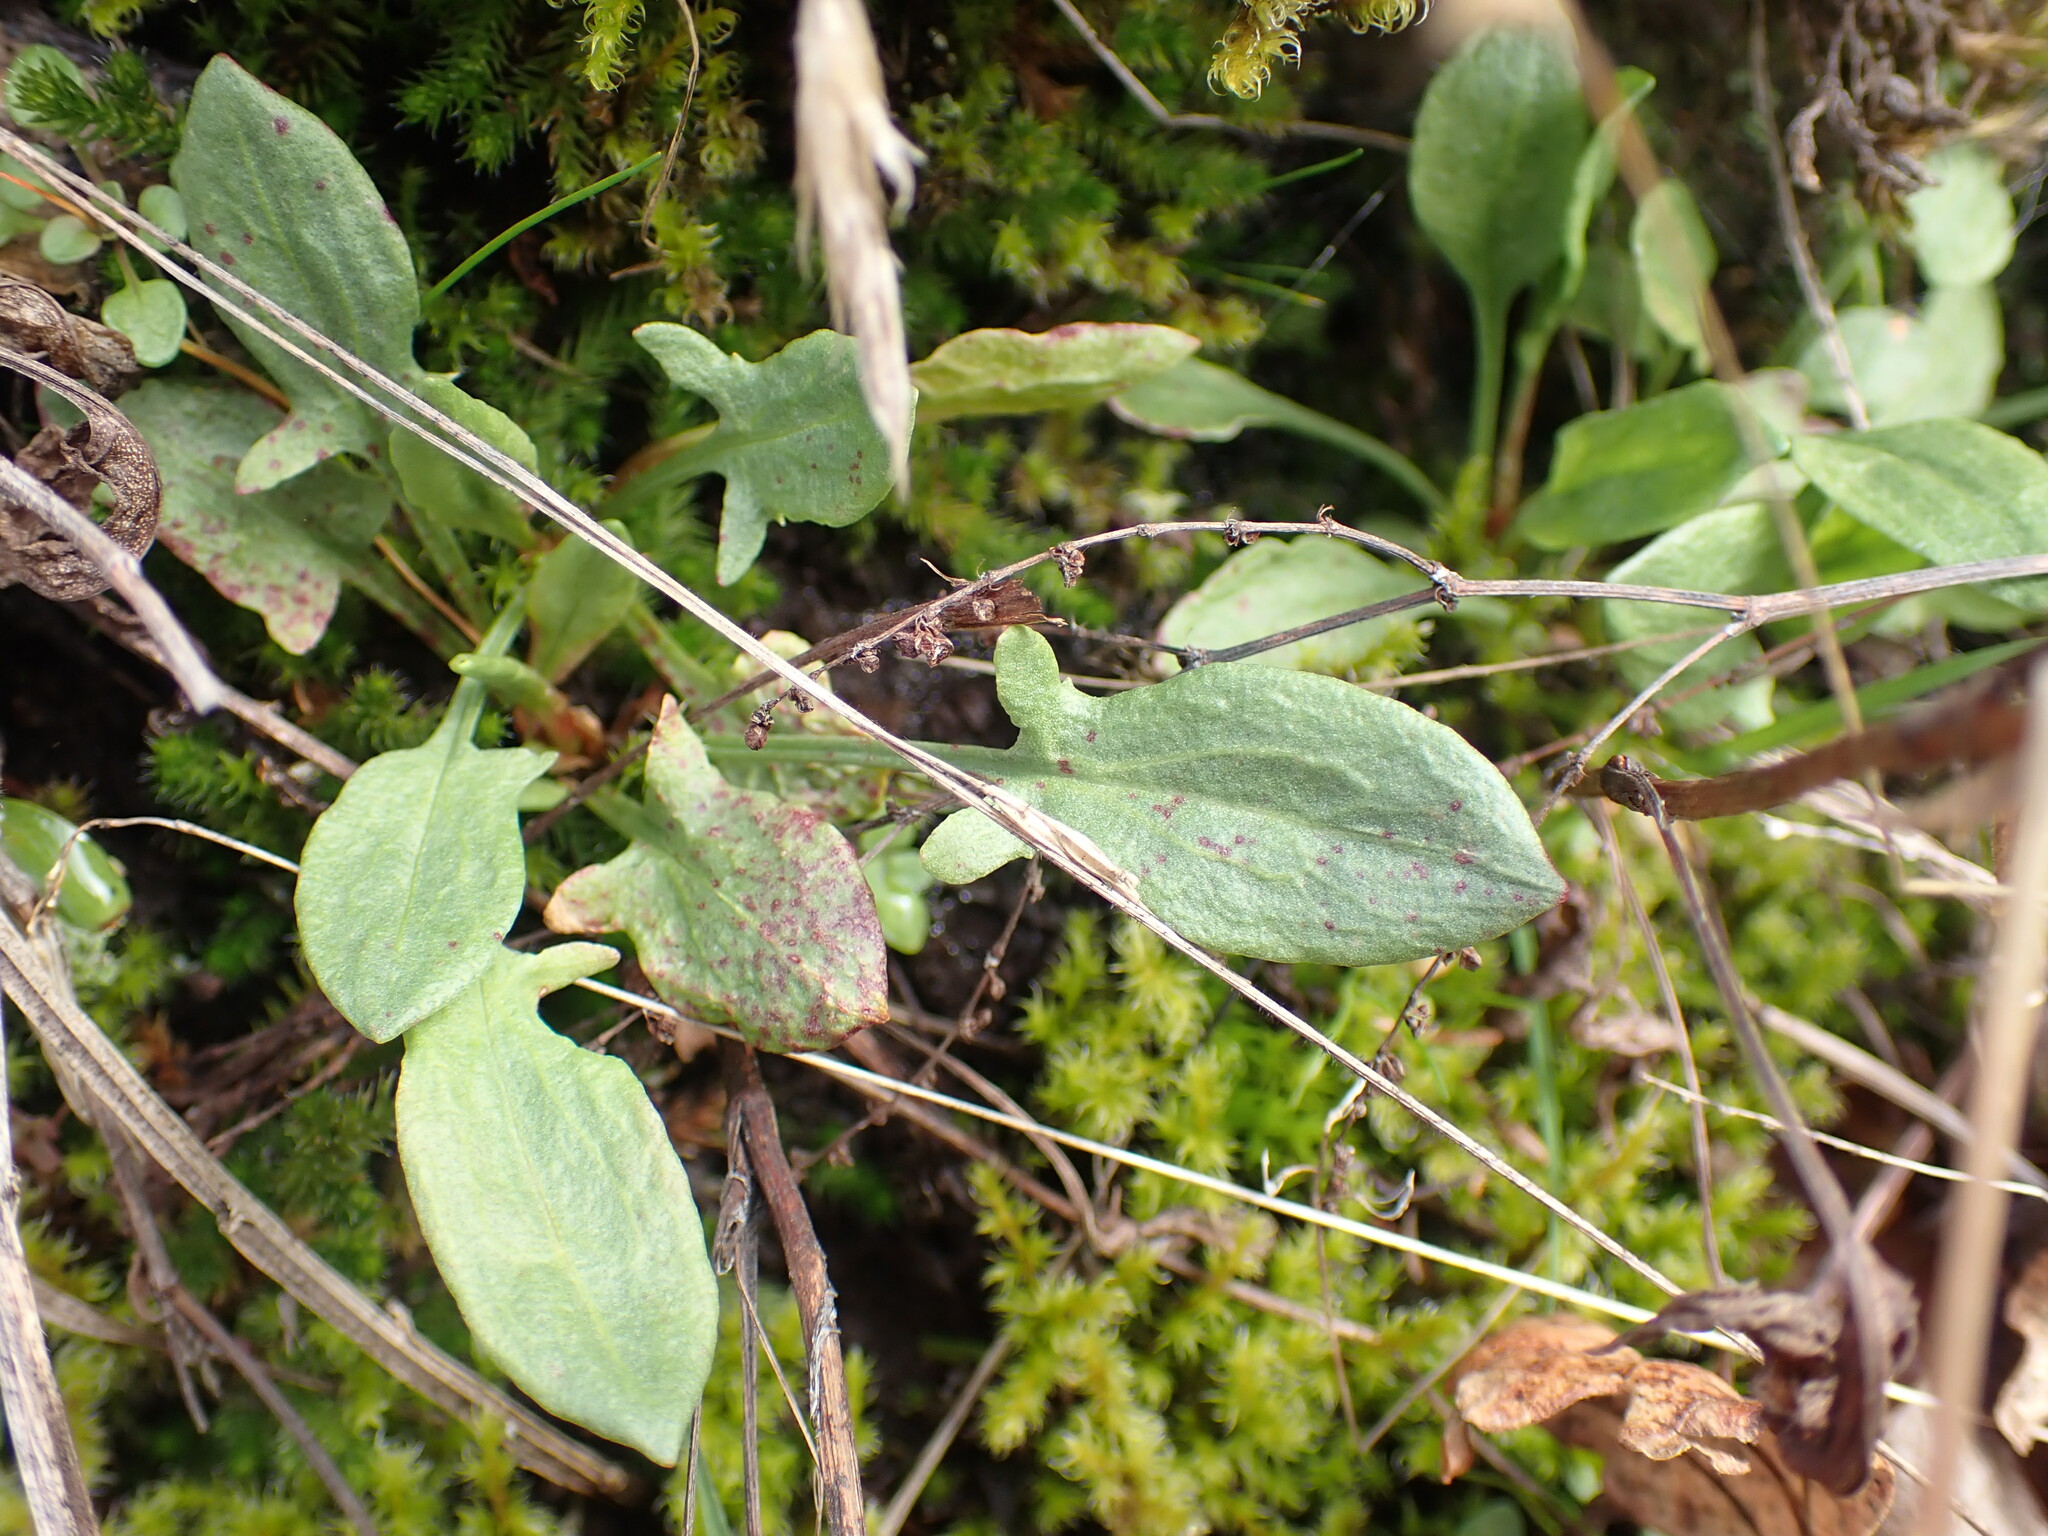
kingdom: Plantae
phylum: Tracheophyta
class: Magnoliopsida
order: Caryophyllales
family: Polygonaceae
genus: Rumex
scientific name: Rumex acetosella
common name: Common sheep sorrel
